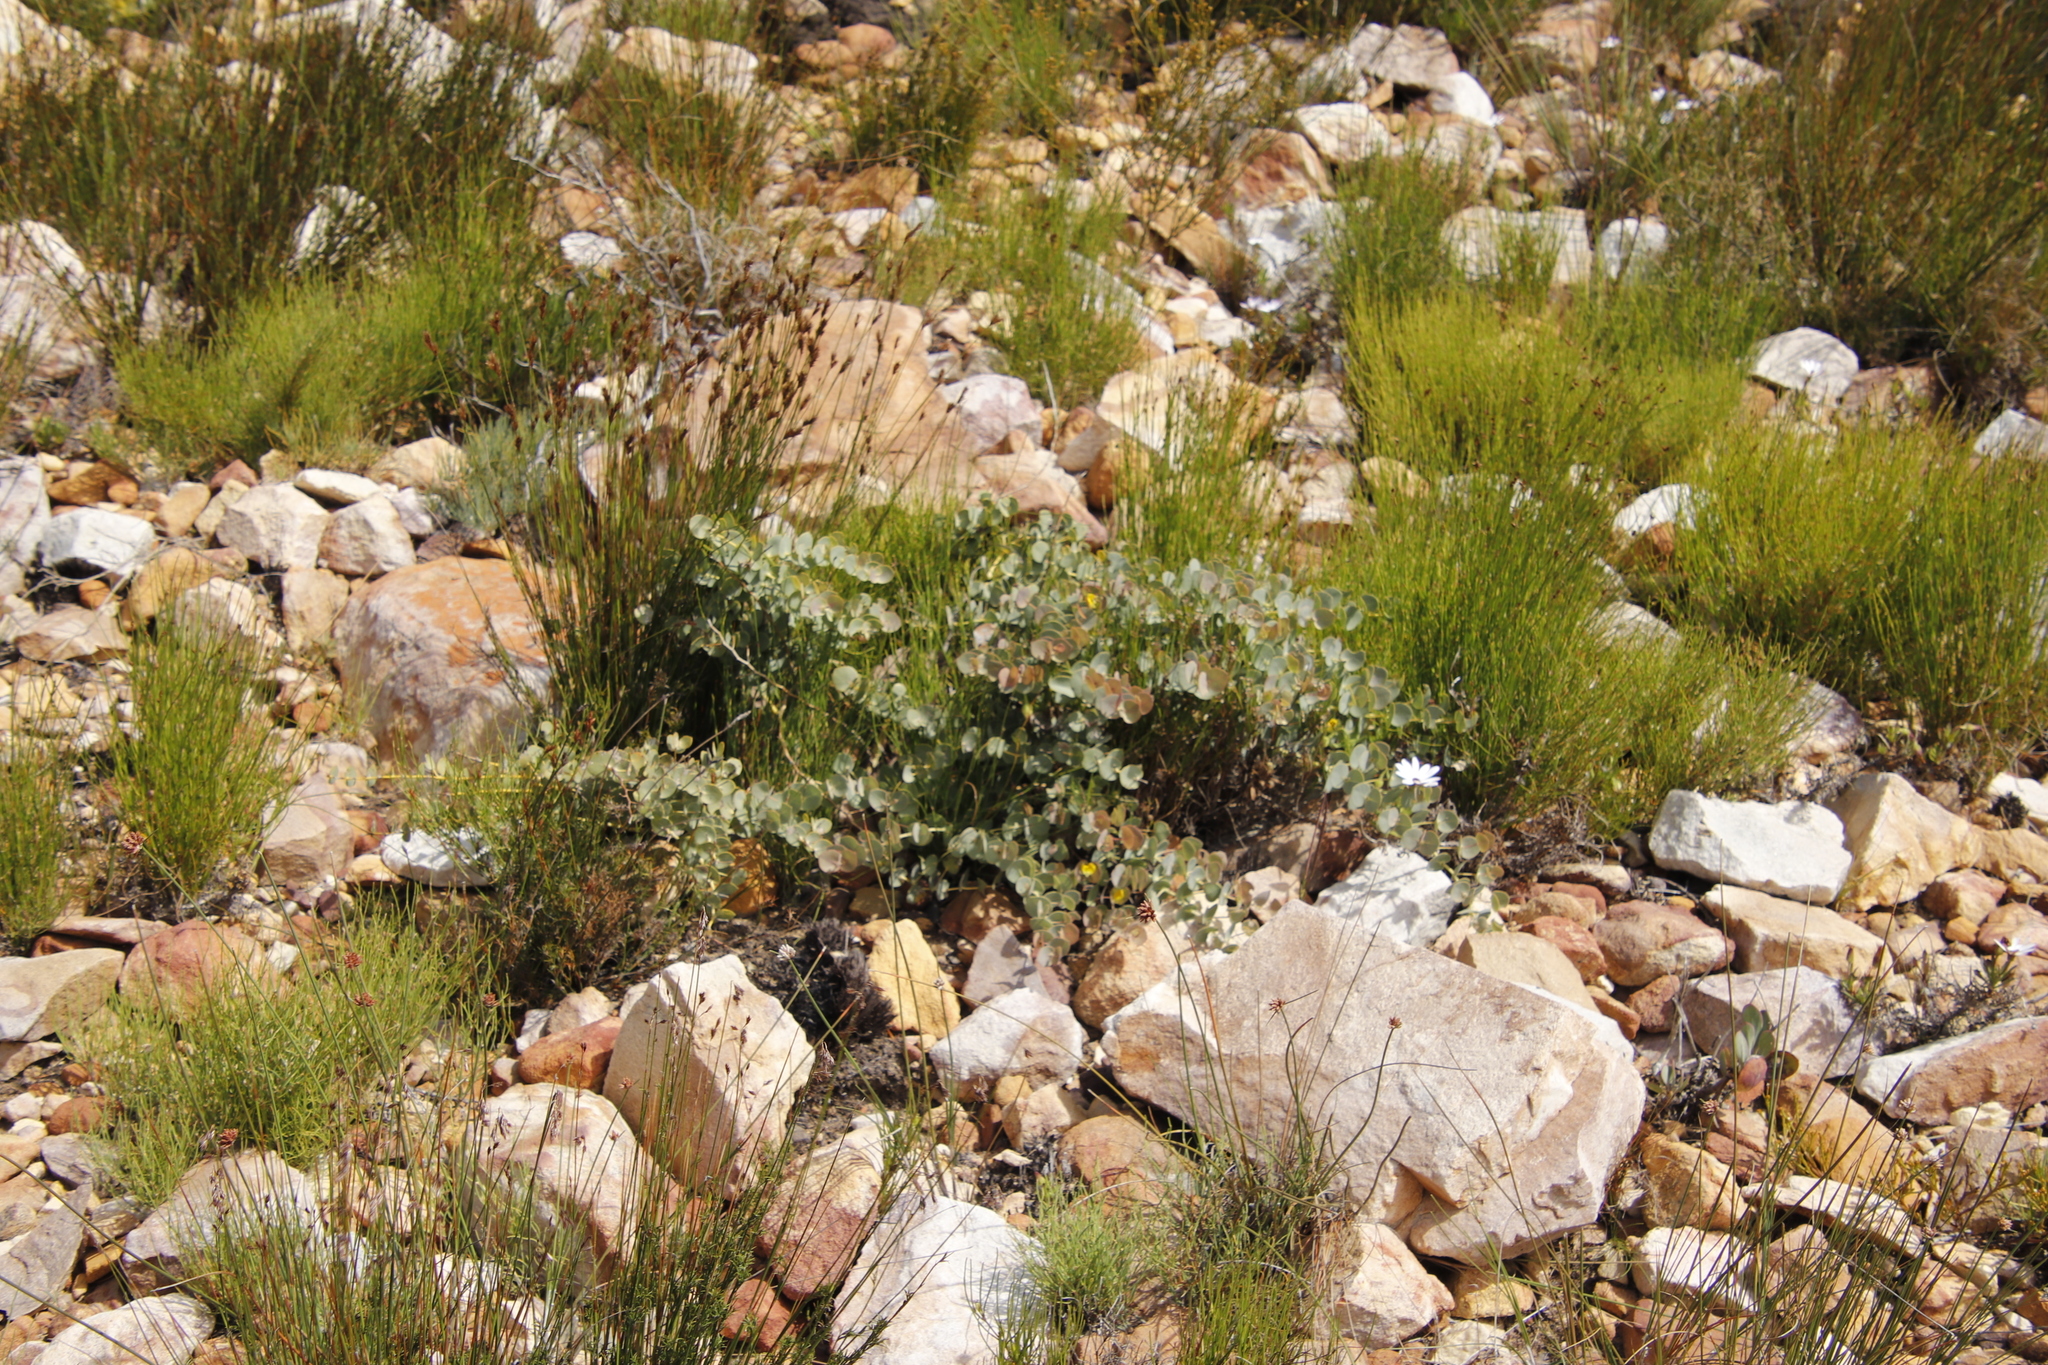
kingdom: Plantae
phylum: Tracheophyta
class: Magnoliopsida
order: Fabales
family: Fabaceae
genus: Rafnia
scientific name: Rafnia amplexicaulis
